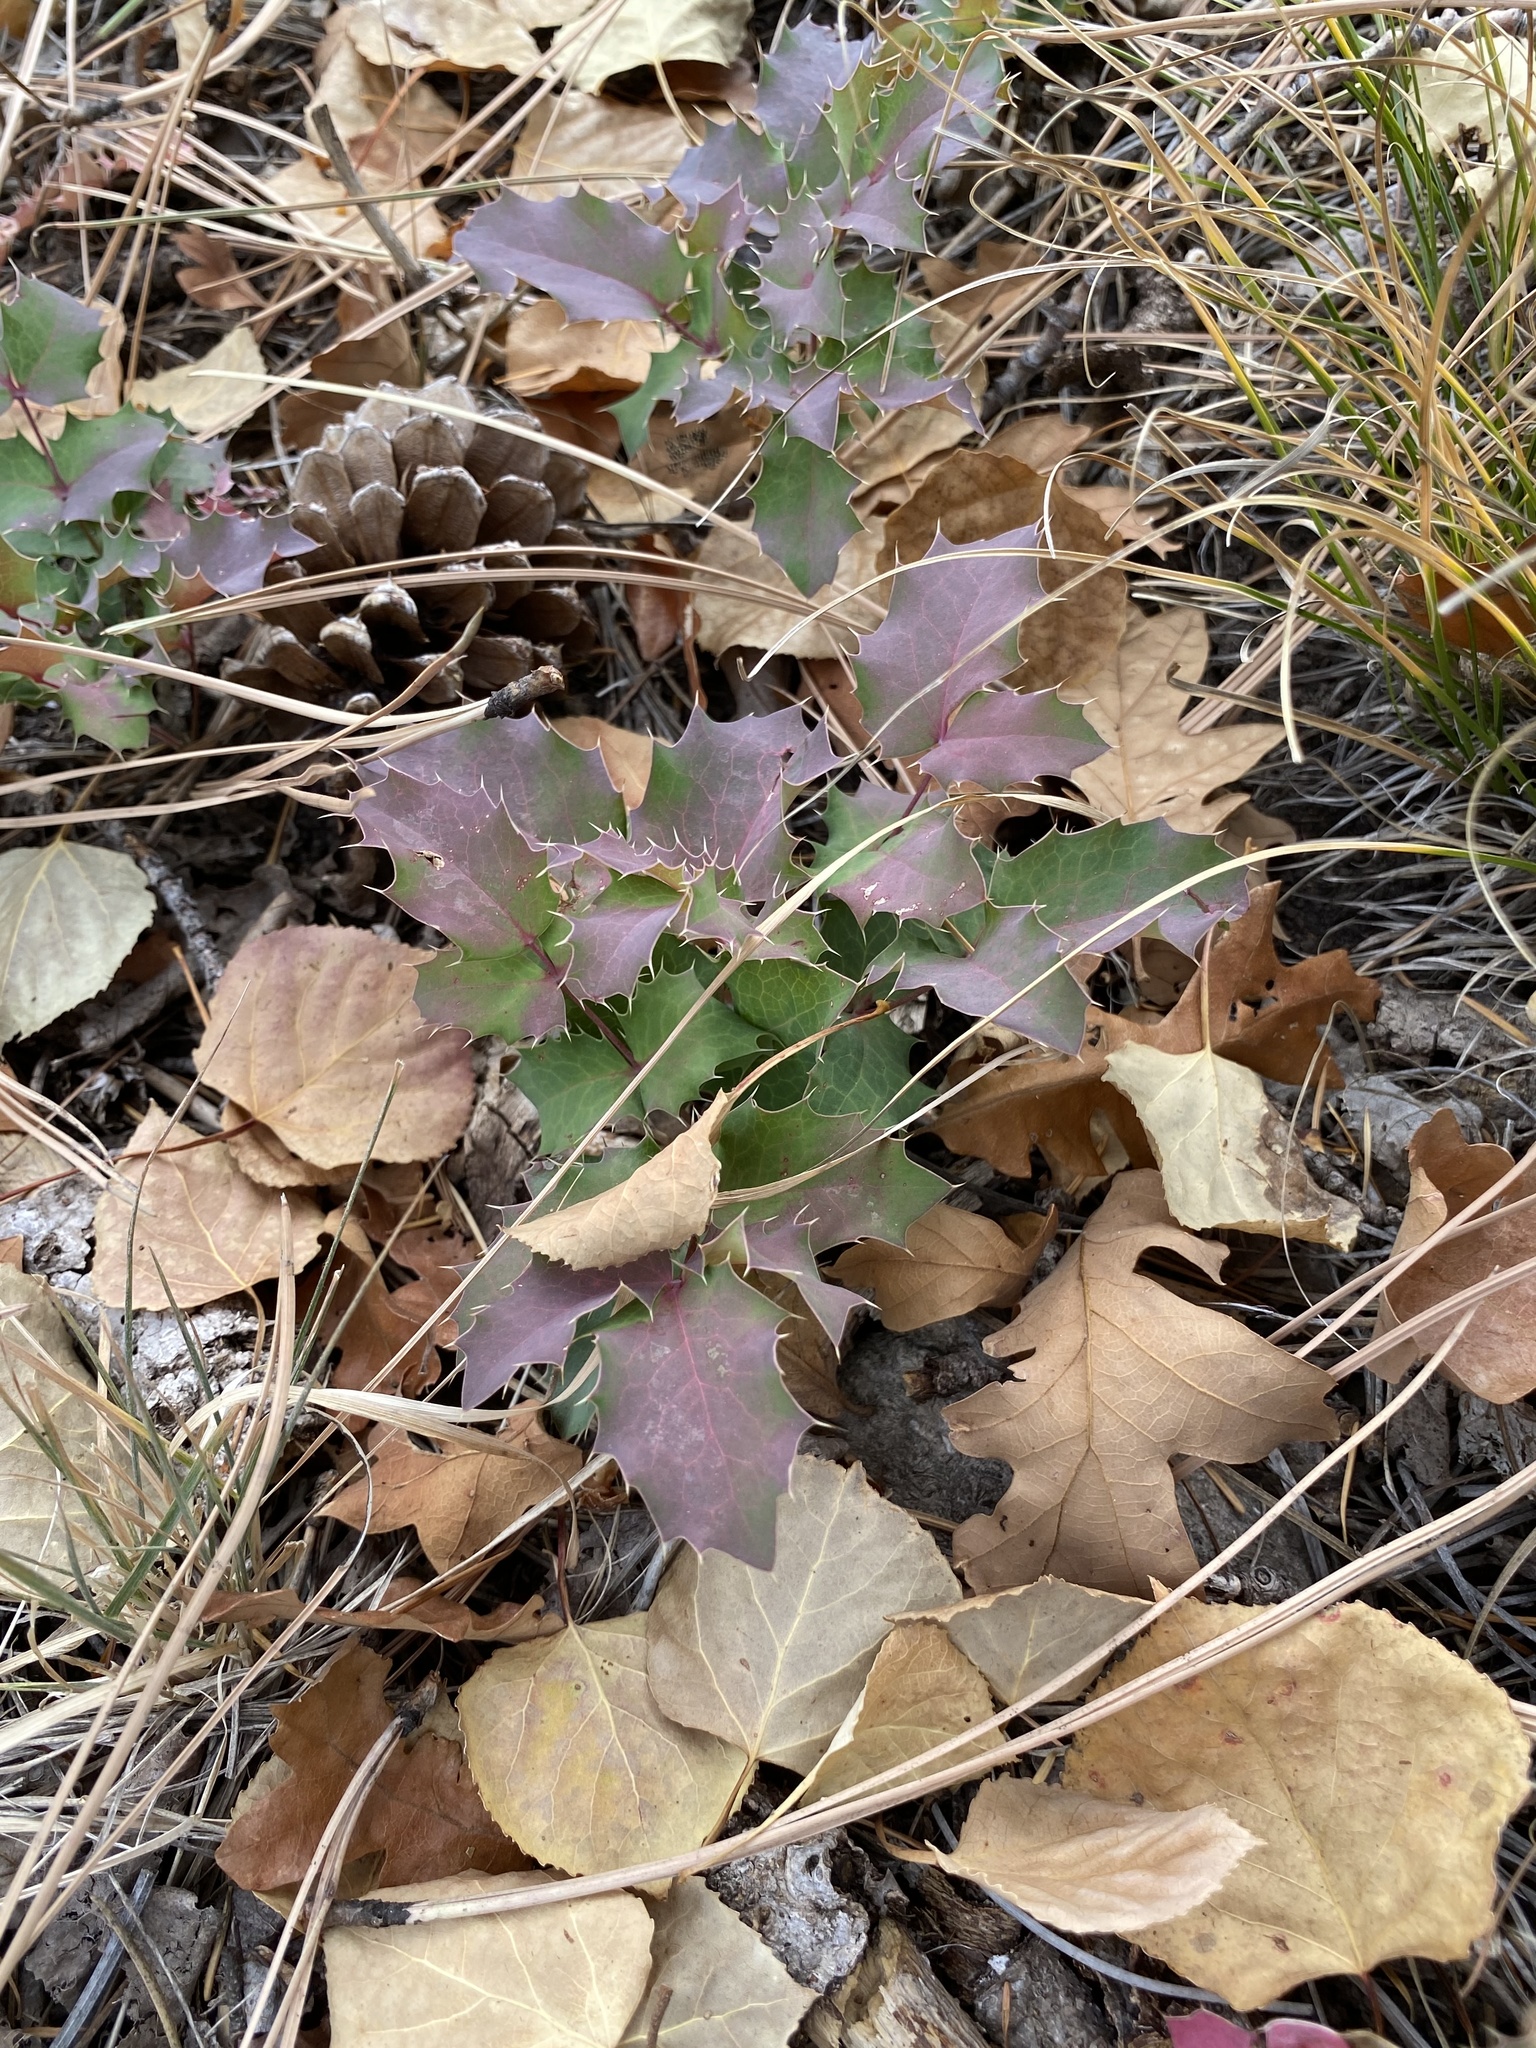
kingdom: Plantae
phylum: Tracheophyta
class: Magnoliopsida
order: Ranunculales
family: Berberidaceae
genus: Mahonia
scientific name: Mahonia repens
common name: Creeping oregon-grape
